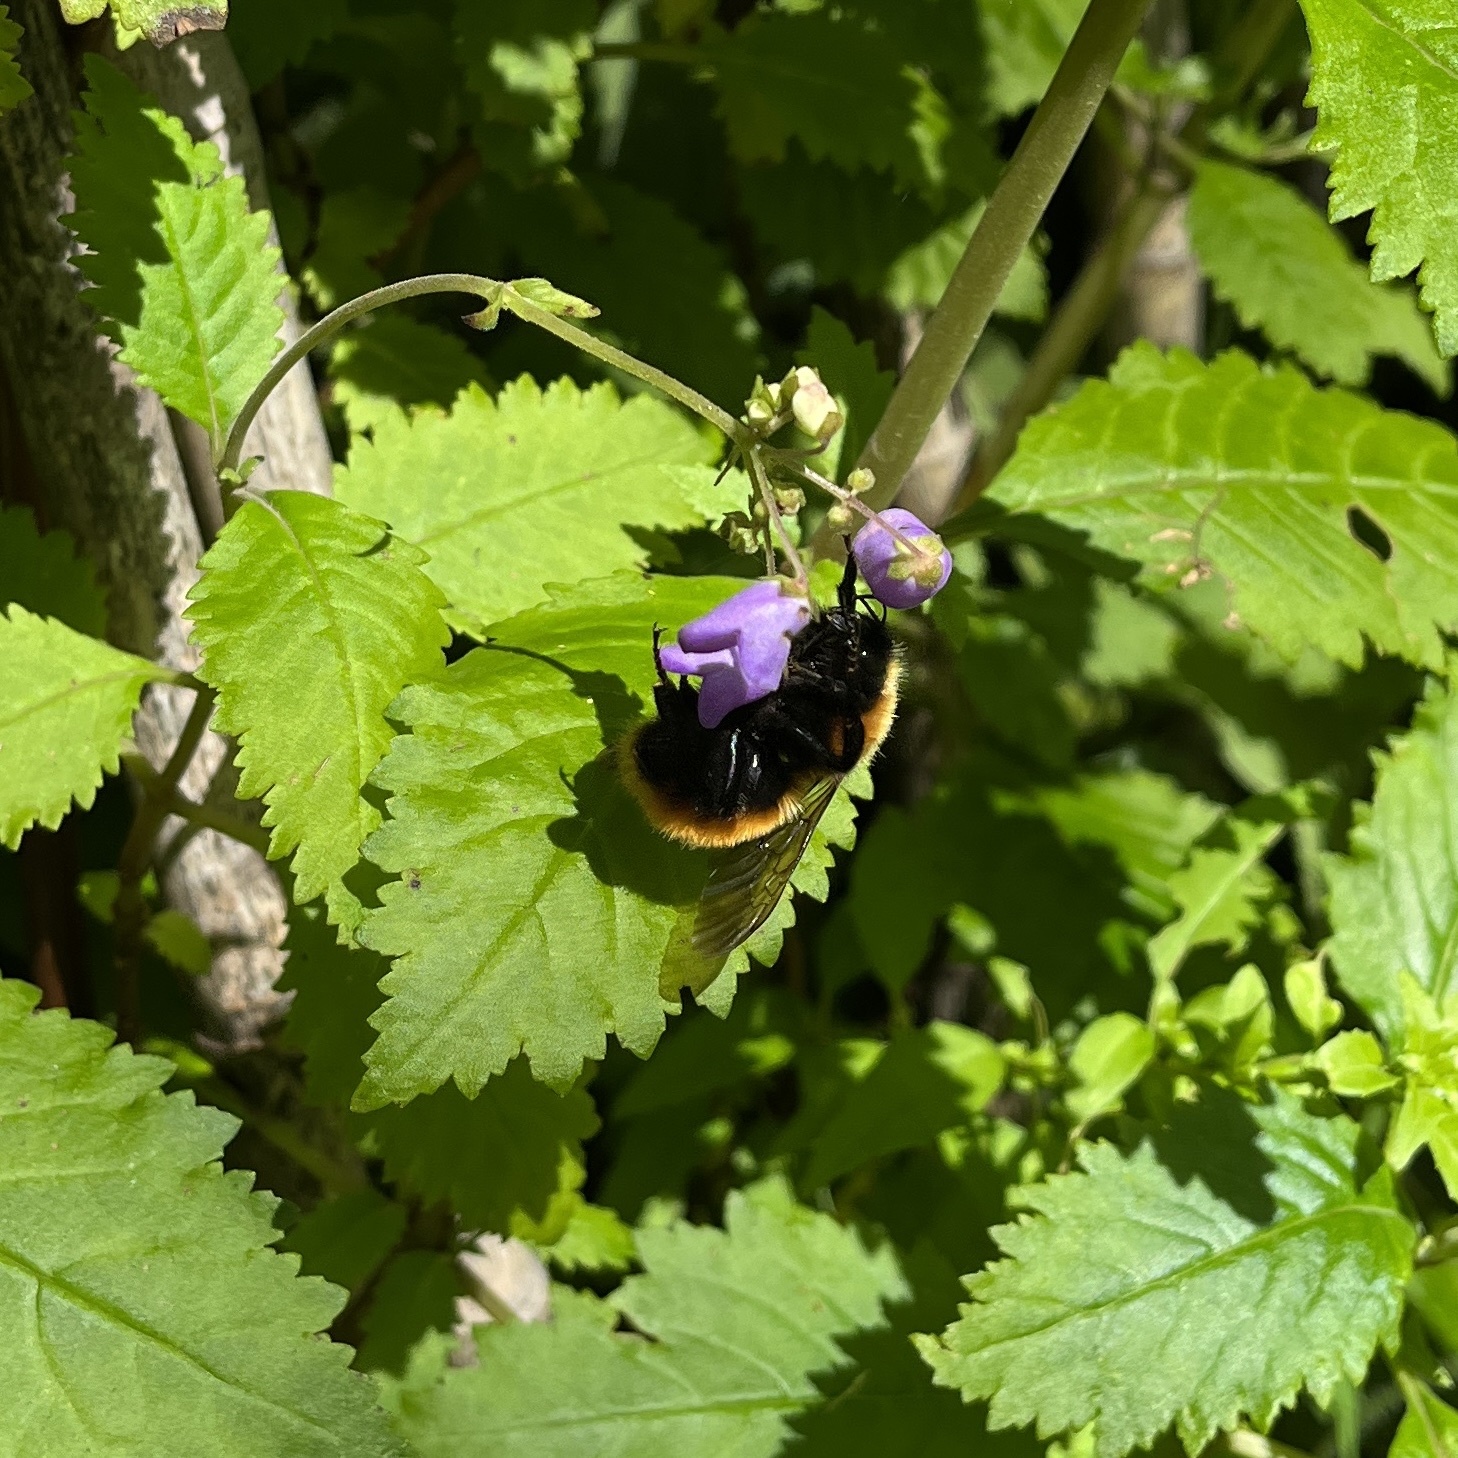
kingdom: Animalia
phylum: Arthropoda
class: Insecta
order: Hymenoptera
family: Apidae
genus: Bombus
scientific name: Bombus dahlbomii
